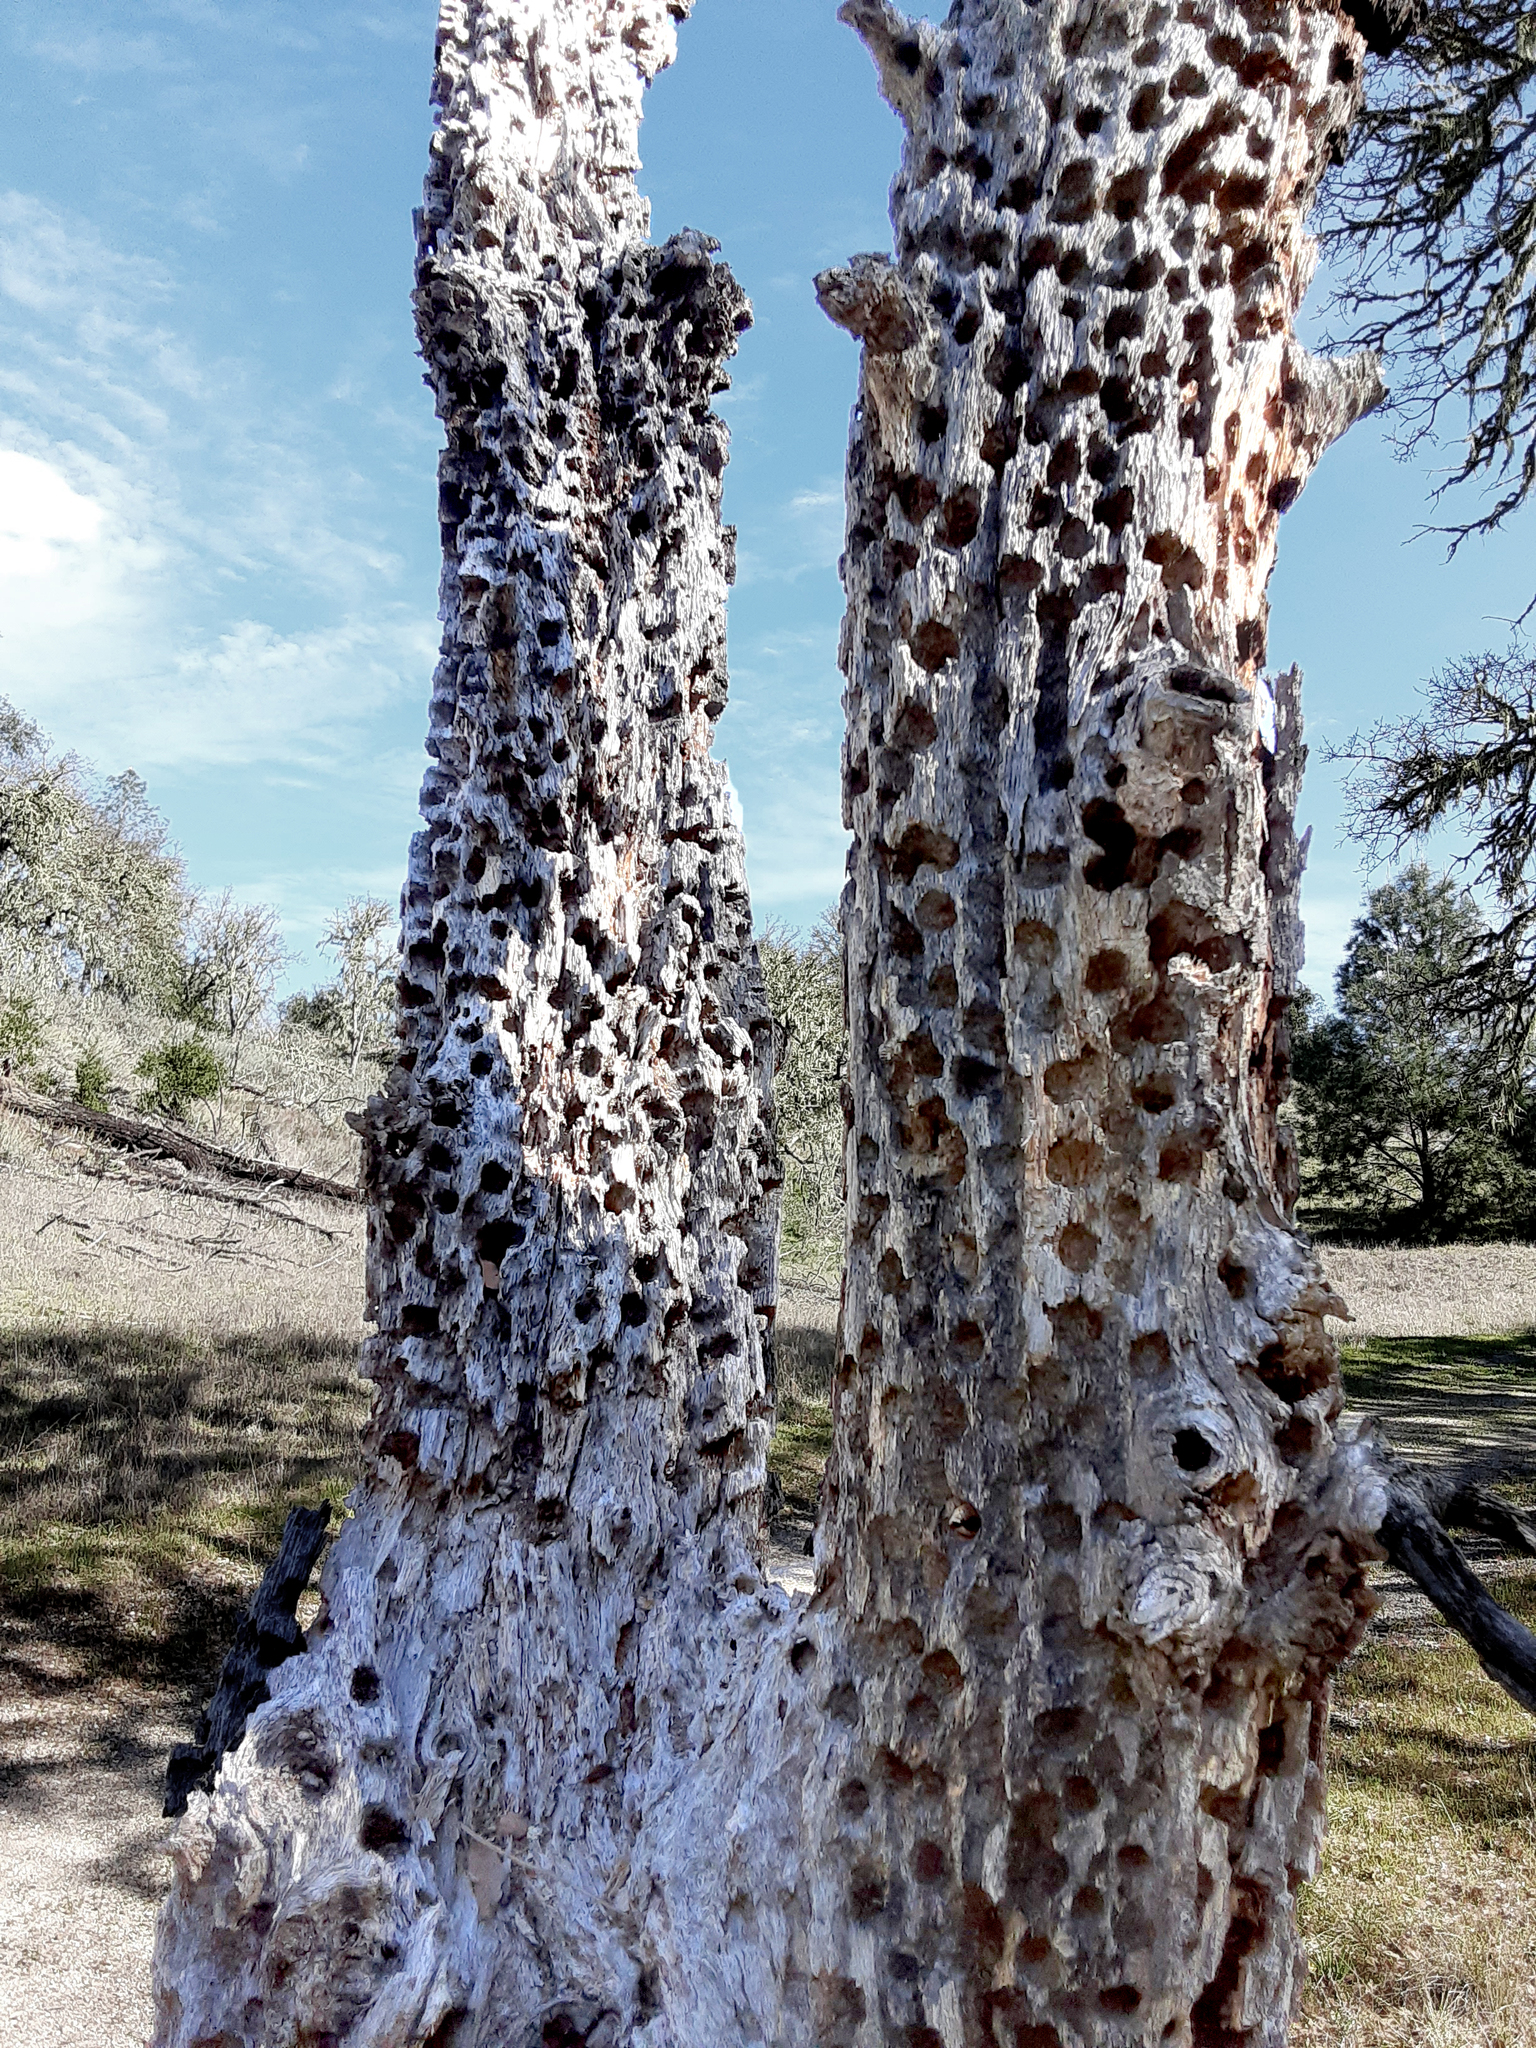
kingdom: Animalia
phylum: Chordata
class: Aves
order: Piciformes
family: Picidae
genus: Melanerpes
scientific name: Melanerpes formicivorus
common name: Acorn woodpecker
